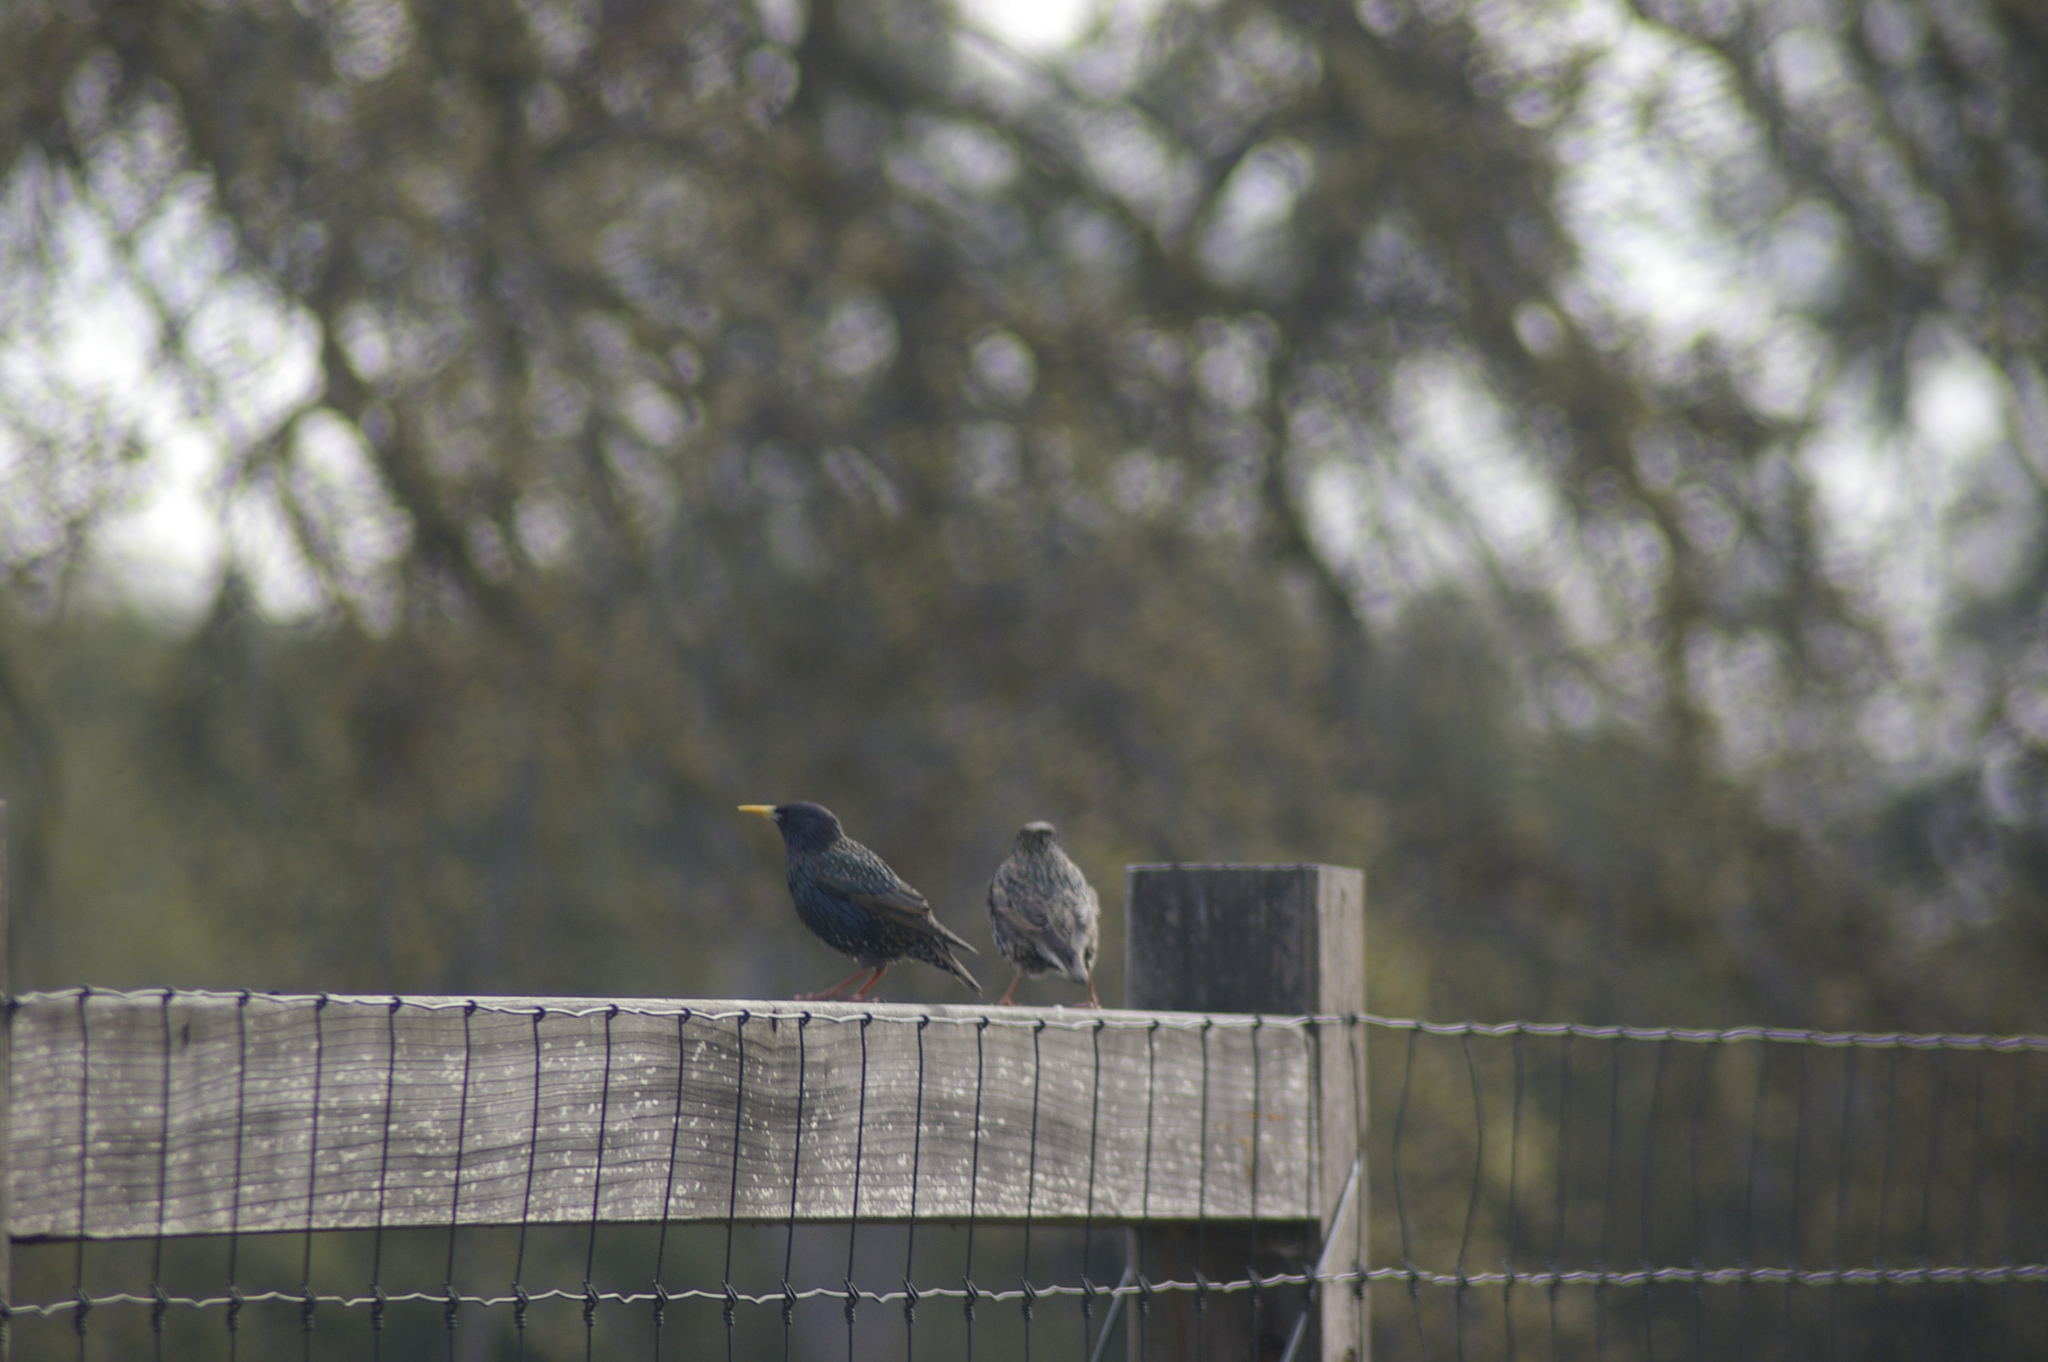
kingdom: Animalia
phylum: Chordata
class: Aves
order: Passeriformes
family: Sturnidae
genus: Sturnus
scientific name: Sturnus vulgaris
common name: Common starling
